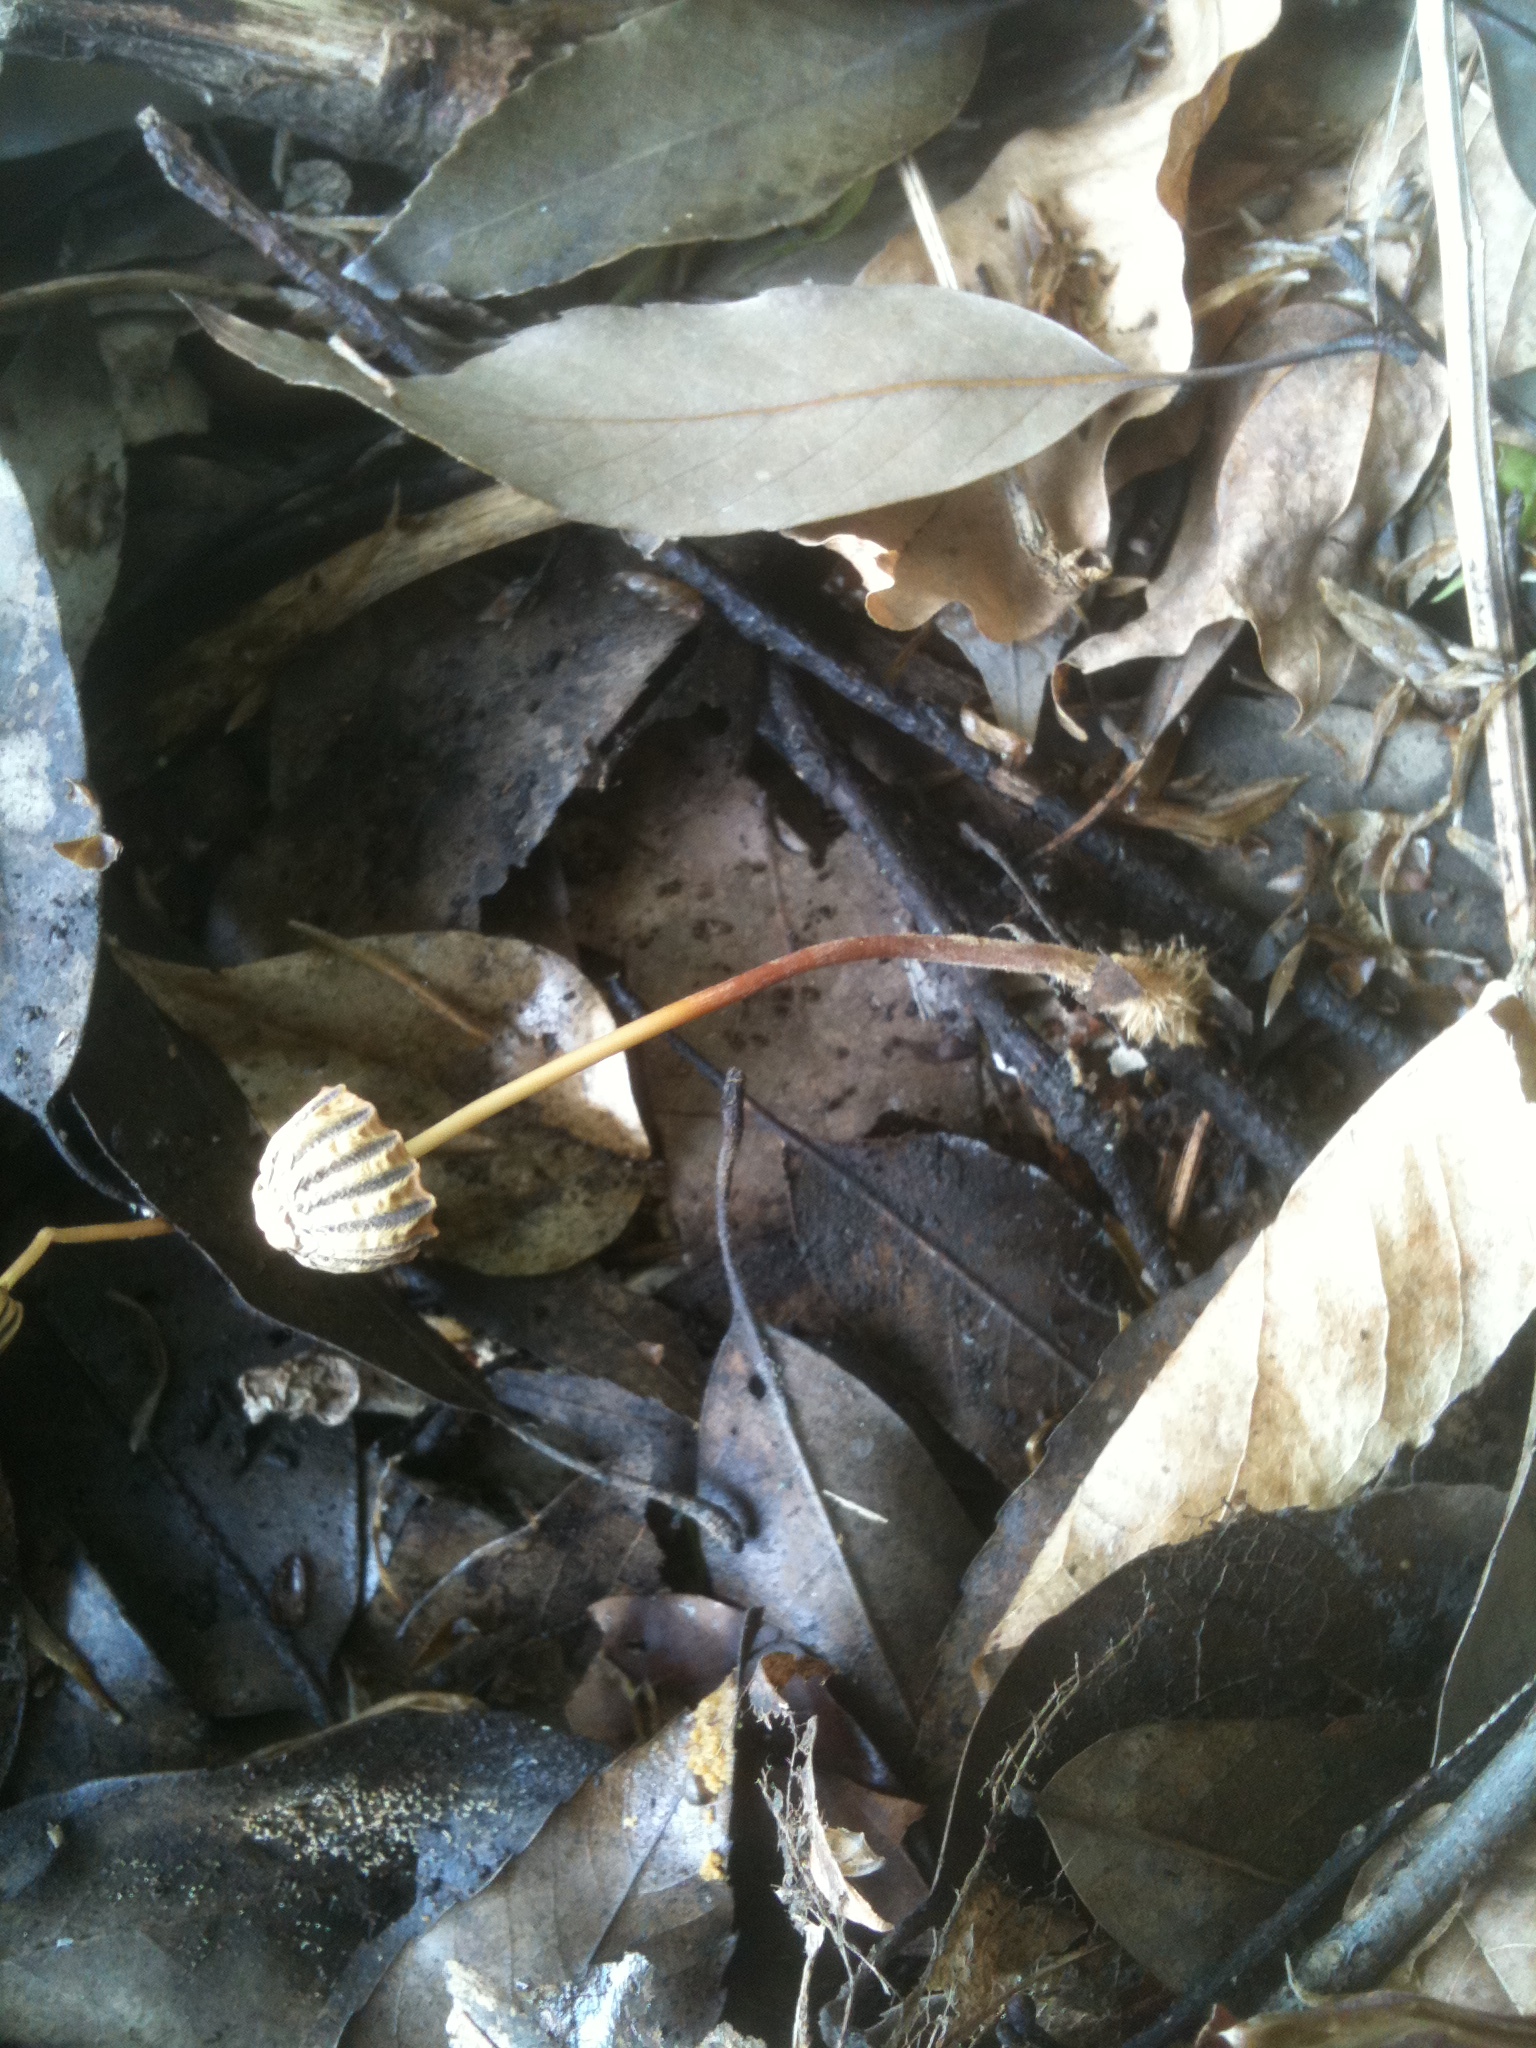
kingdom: Fungi
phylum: Basidiomycota
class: Agaricomycetes
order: Agaricales
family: Marasmiaceae
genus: Marasmius
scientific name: Marasmius purpureostriatus
